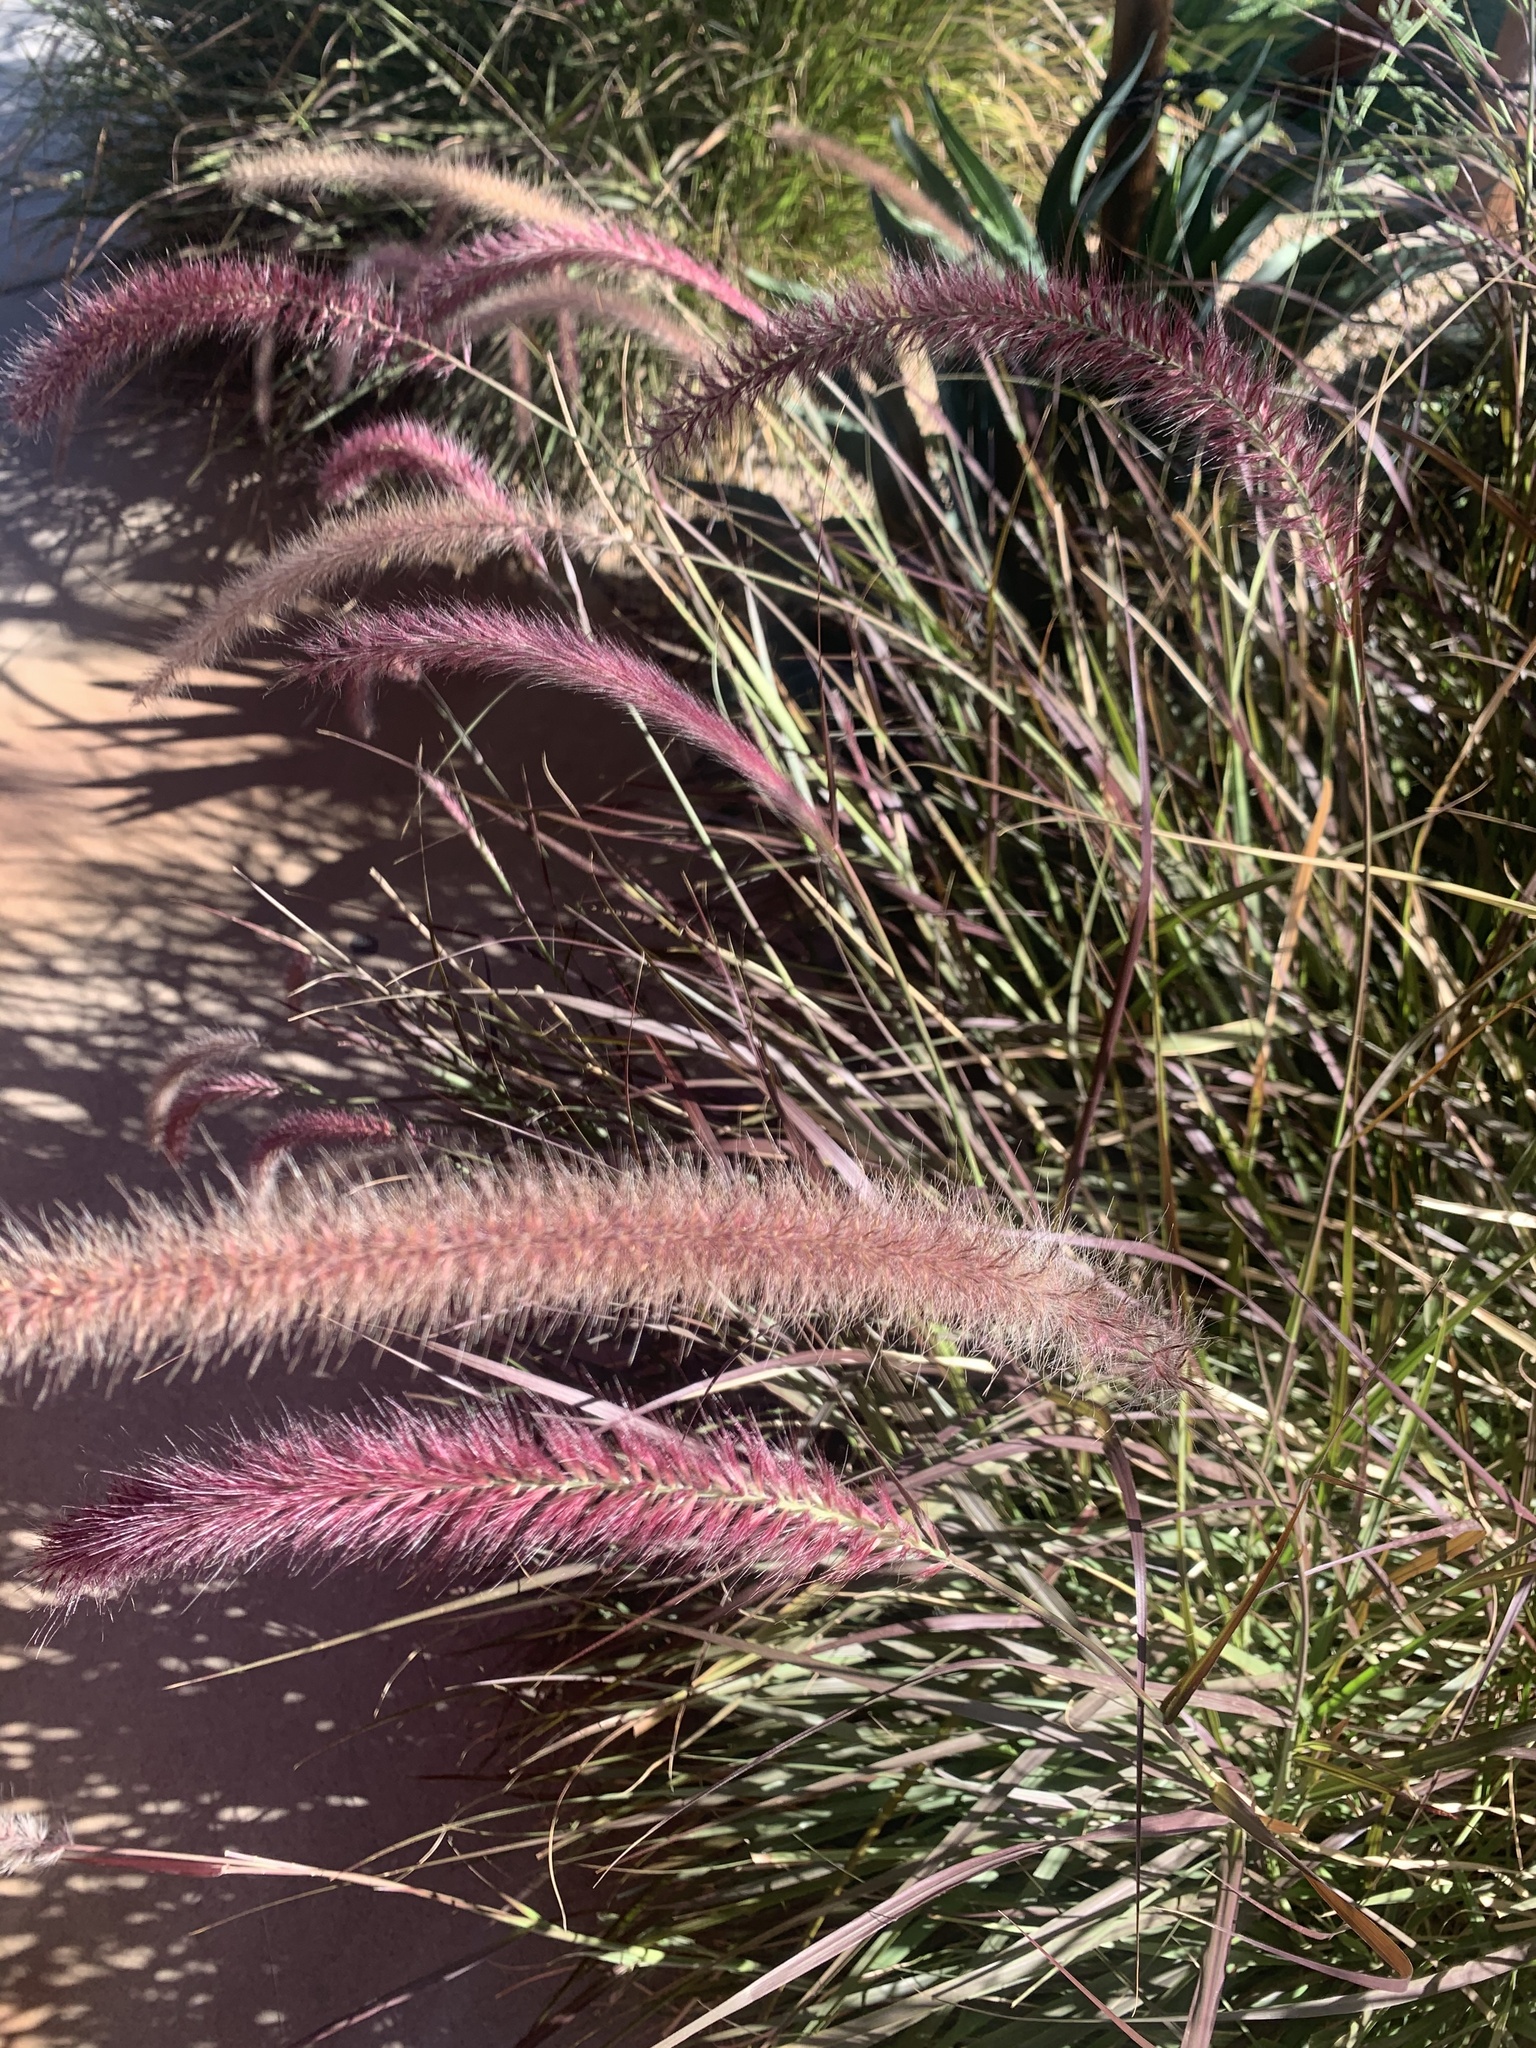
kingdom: Plantae
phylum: Tracheophyta
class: Liliopsida
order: Poales
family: Poaceae
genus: Cenchrus
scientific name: Cenchrus setaceus
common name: Crimson fountaingrass
